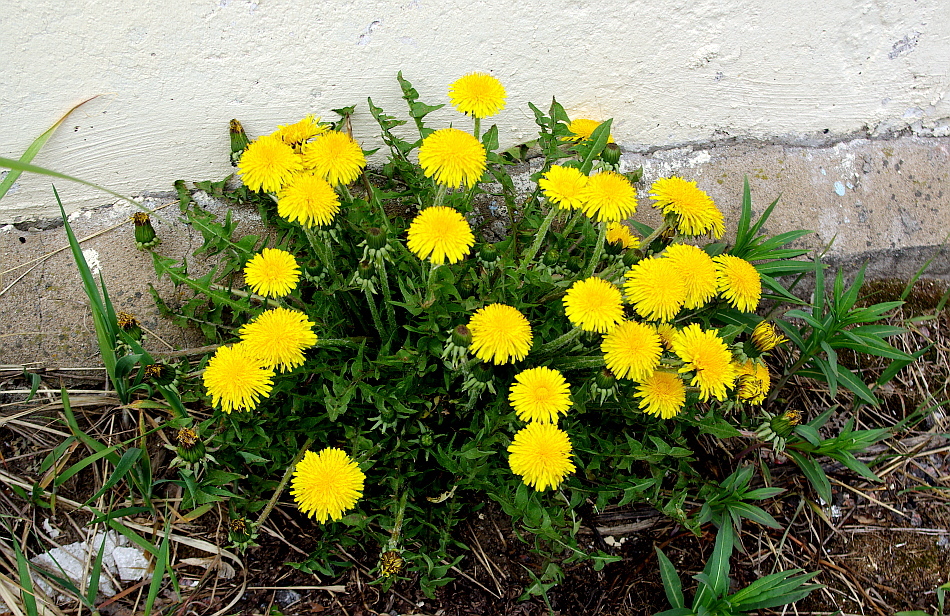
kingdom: Plantae
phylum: Tracheophyta
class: Magnoliopsida
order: Asterales
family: Asteraceae
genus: Taraxacum
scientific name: Taraxacum officinale
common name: Common dandelion
